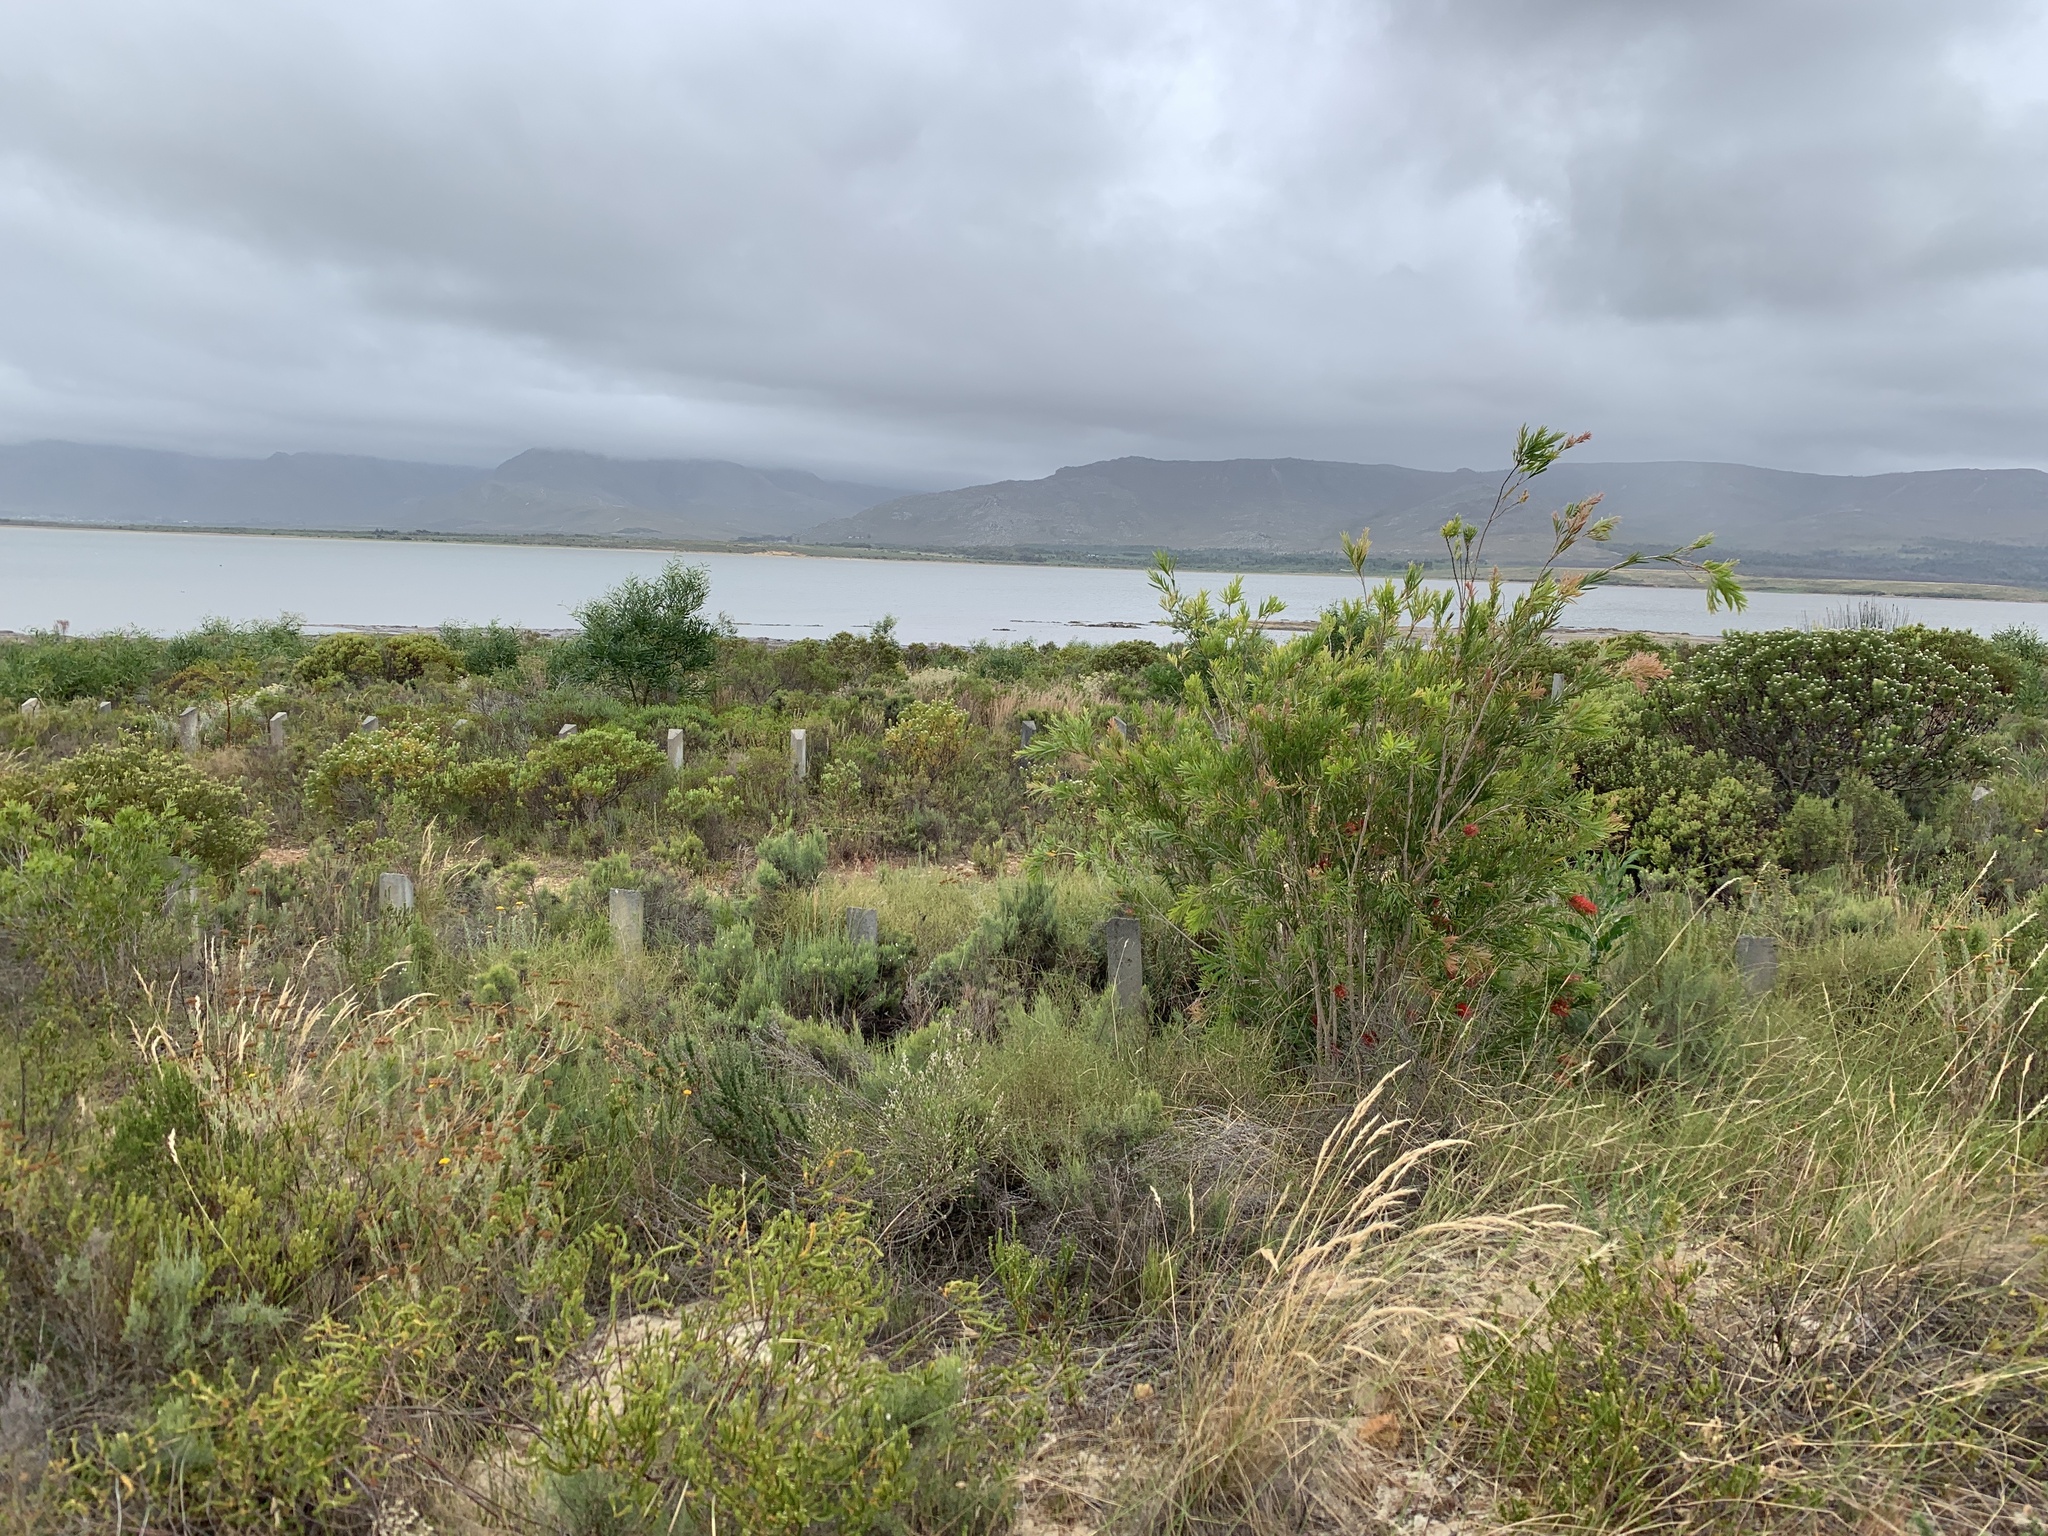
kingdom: Plantae
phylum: Tracheophyta
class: Magnoliopsida
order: Myrtales
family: Myrtaceae
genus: Callistemon
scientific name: Callistemon viminalis
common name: Drooping bottlebrush
